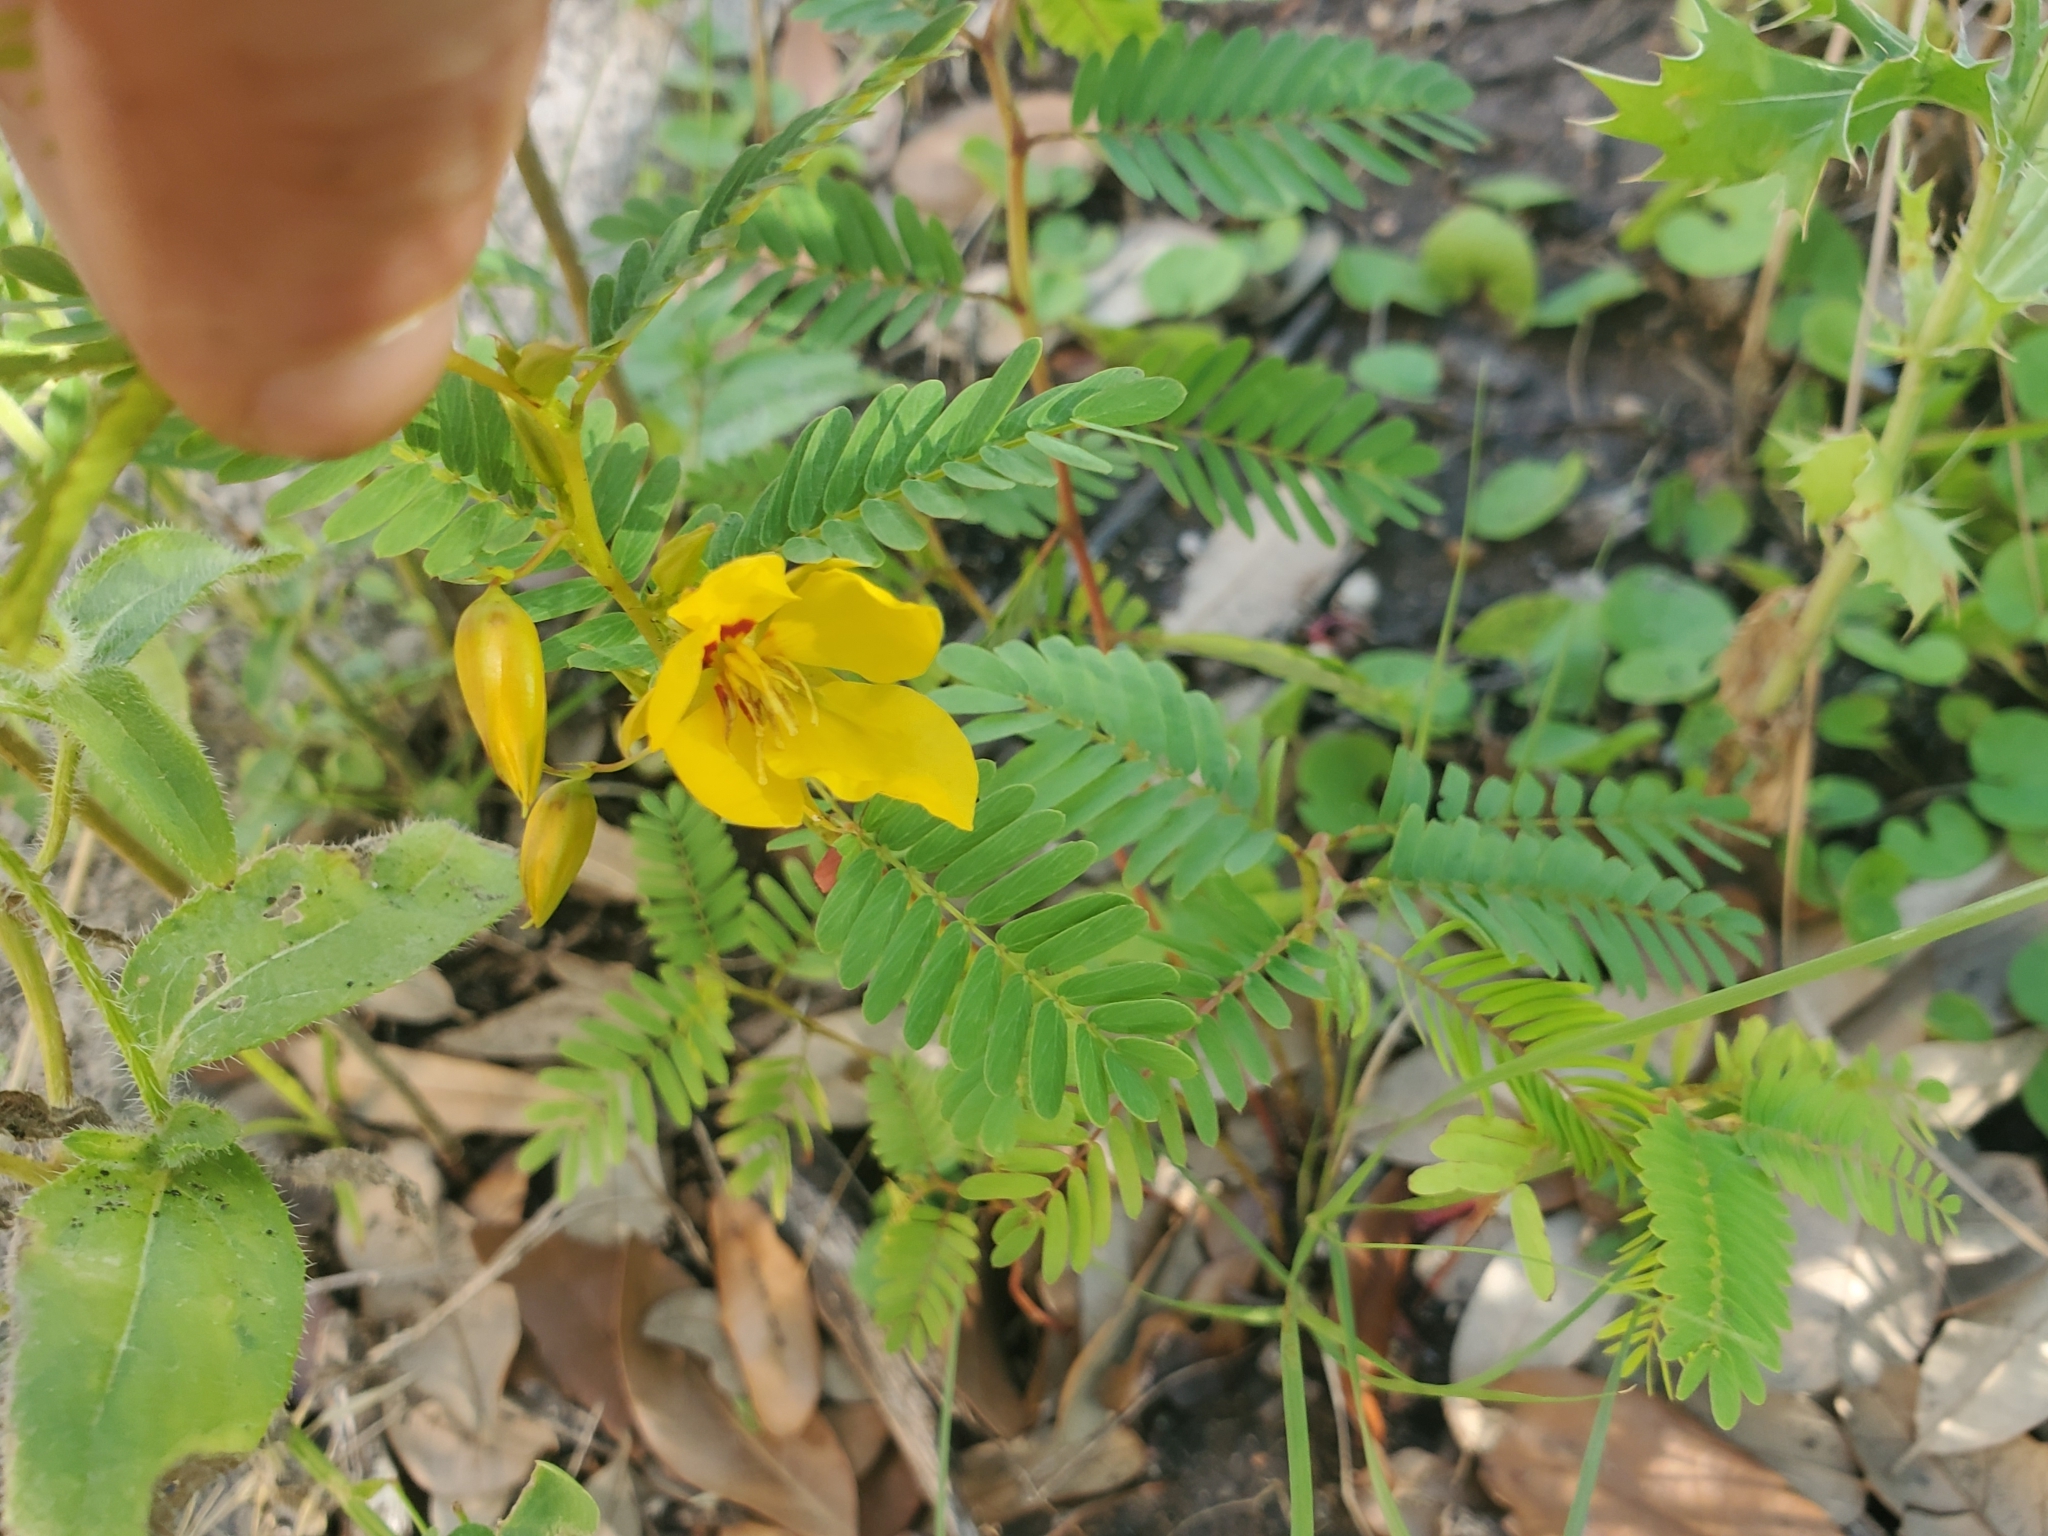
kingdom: Plantae
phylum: Tracheophyta
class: Magnoliopsida
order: Fabales
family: Fabaceae
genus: Chamaecrista
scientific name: Chamaecrista fasciculata
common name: Golden cassia
